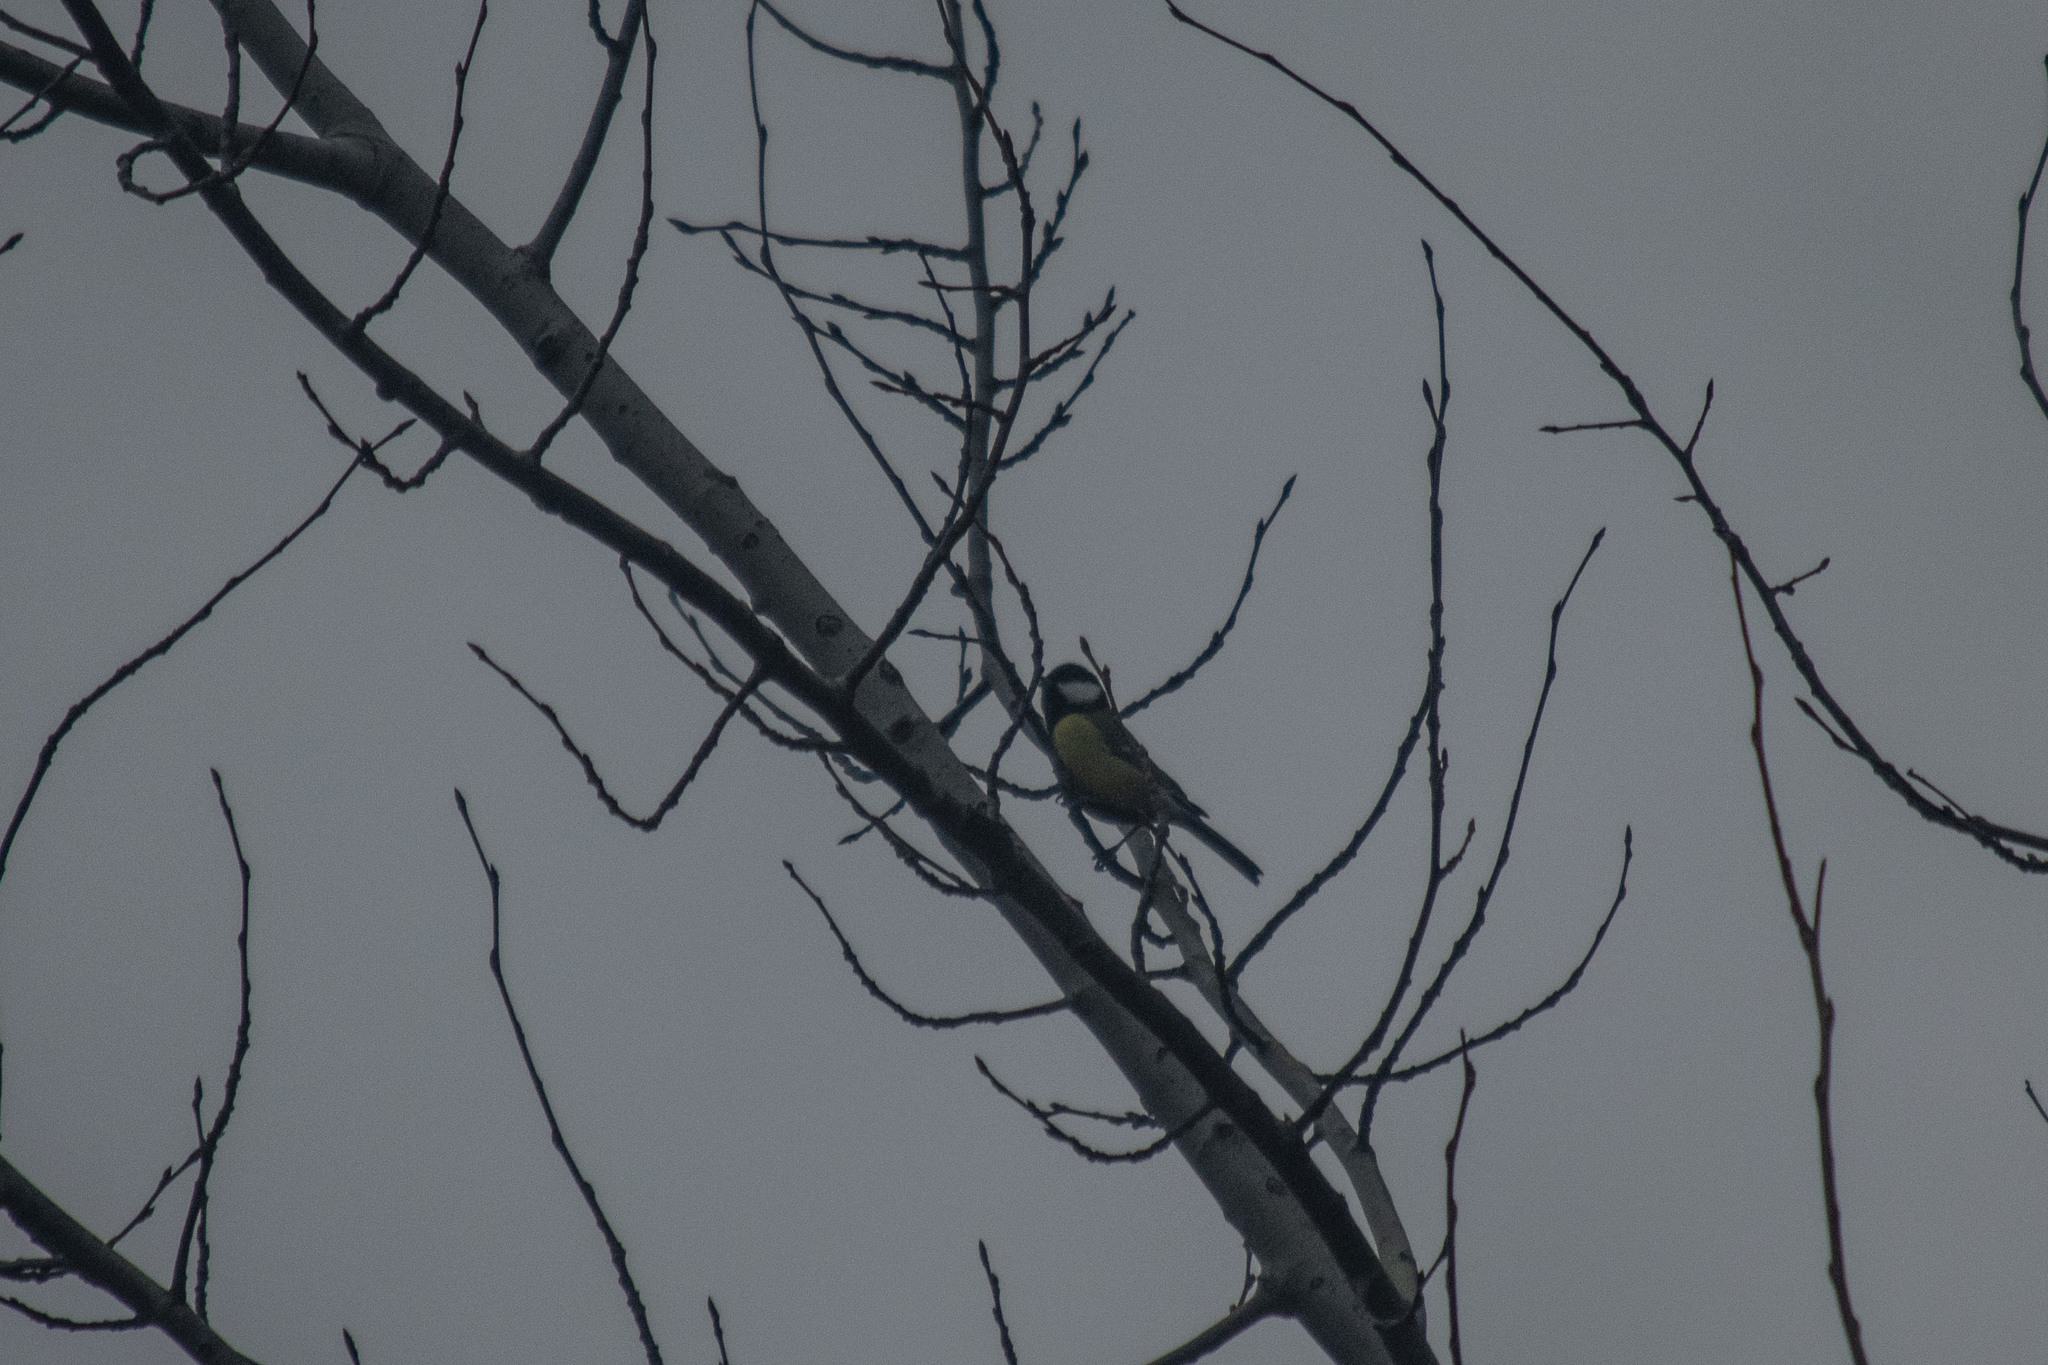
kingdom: Animalia
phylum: Chordata
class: Aves
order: Passeriformes
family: Paridae
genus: Parus
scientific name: Parus major
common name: Great tit
